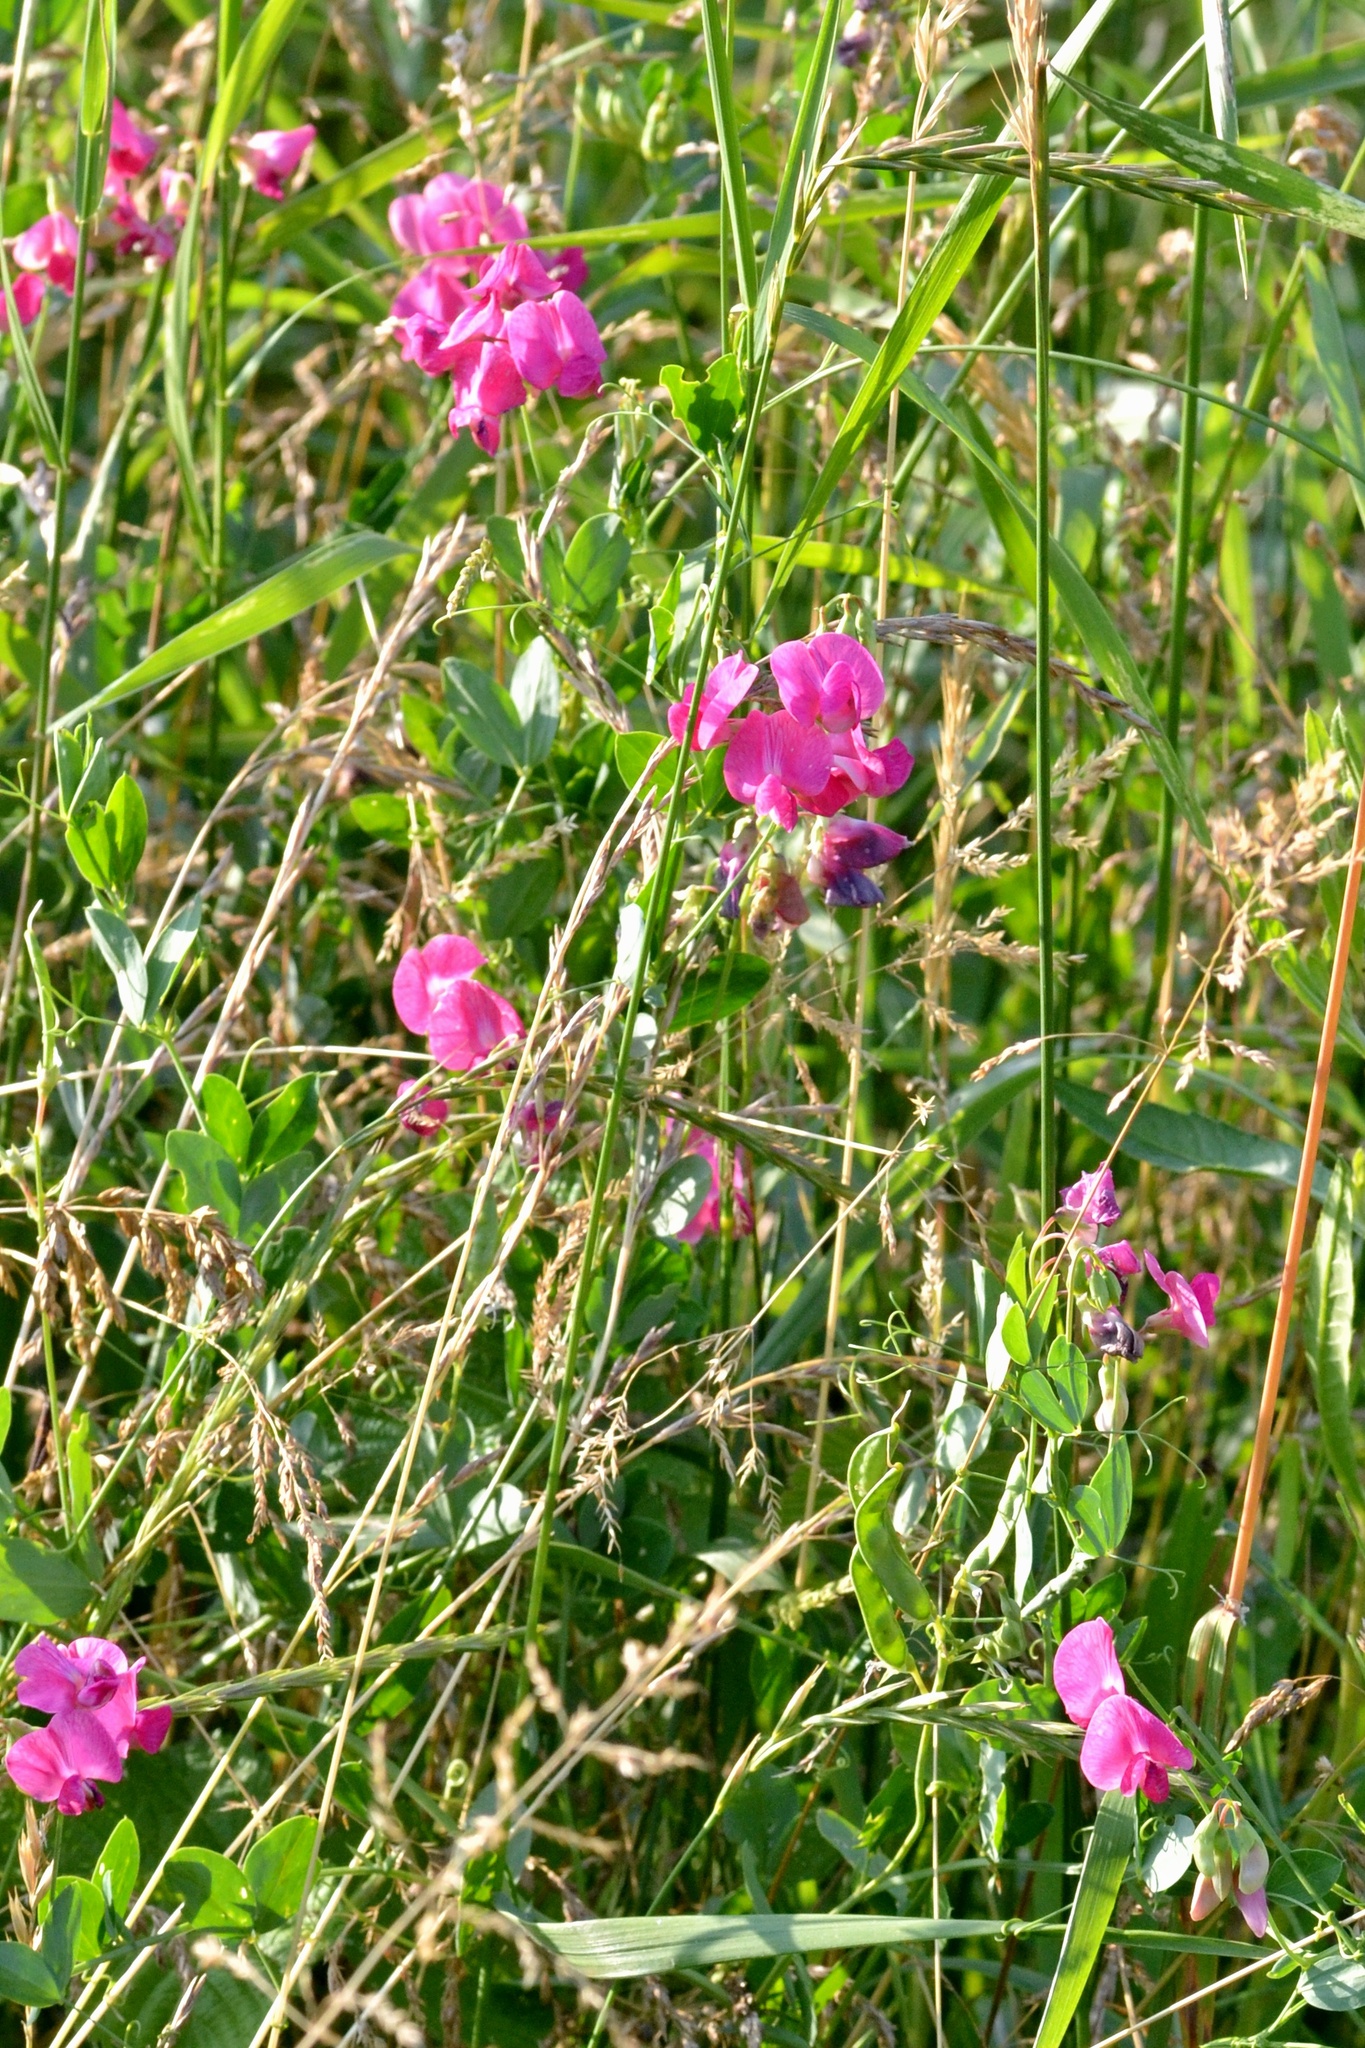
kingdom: Plantae
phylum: Tracheophyta
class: Magnoliopsida
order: Fabales
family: Fabaceae
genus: Lathyrus
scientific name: Lathyrus tuberosus
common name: Tuberous pea
